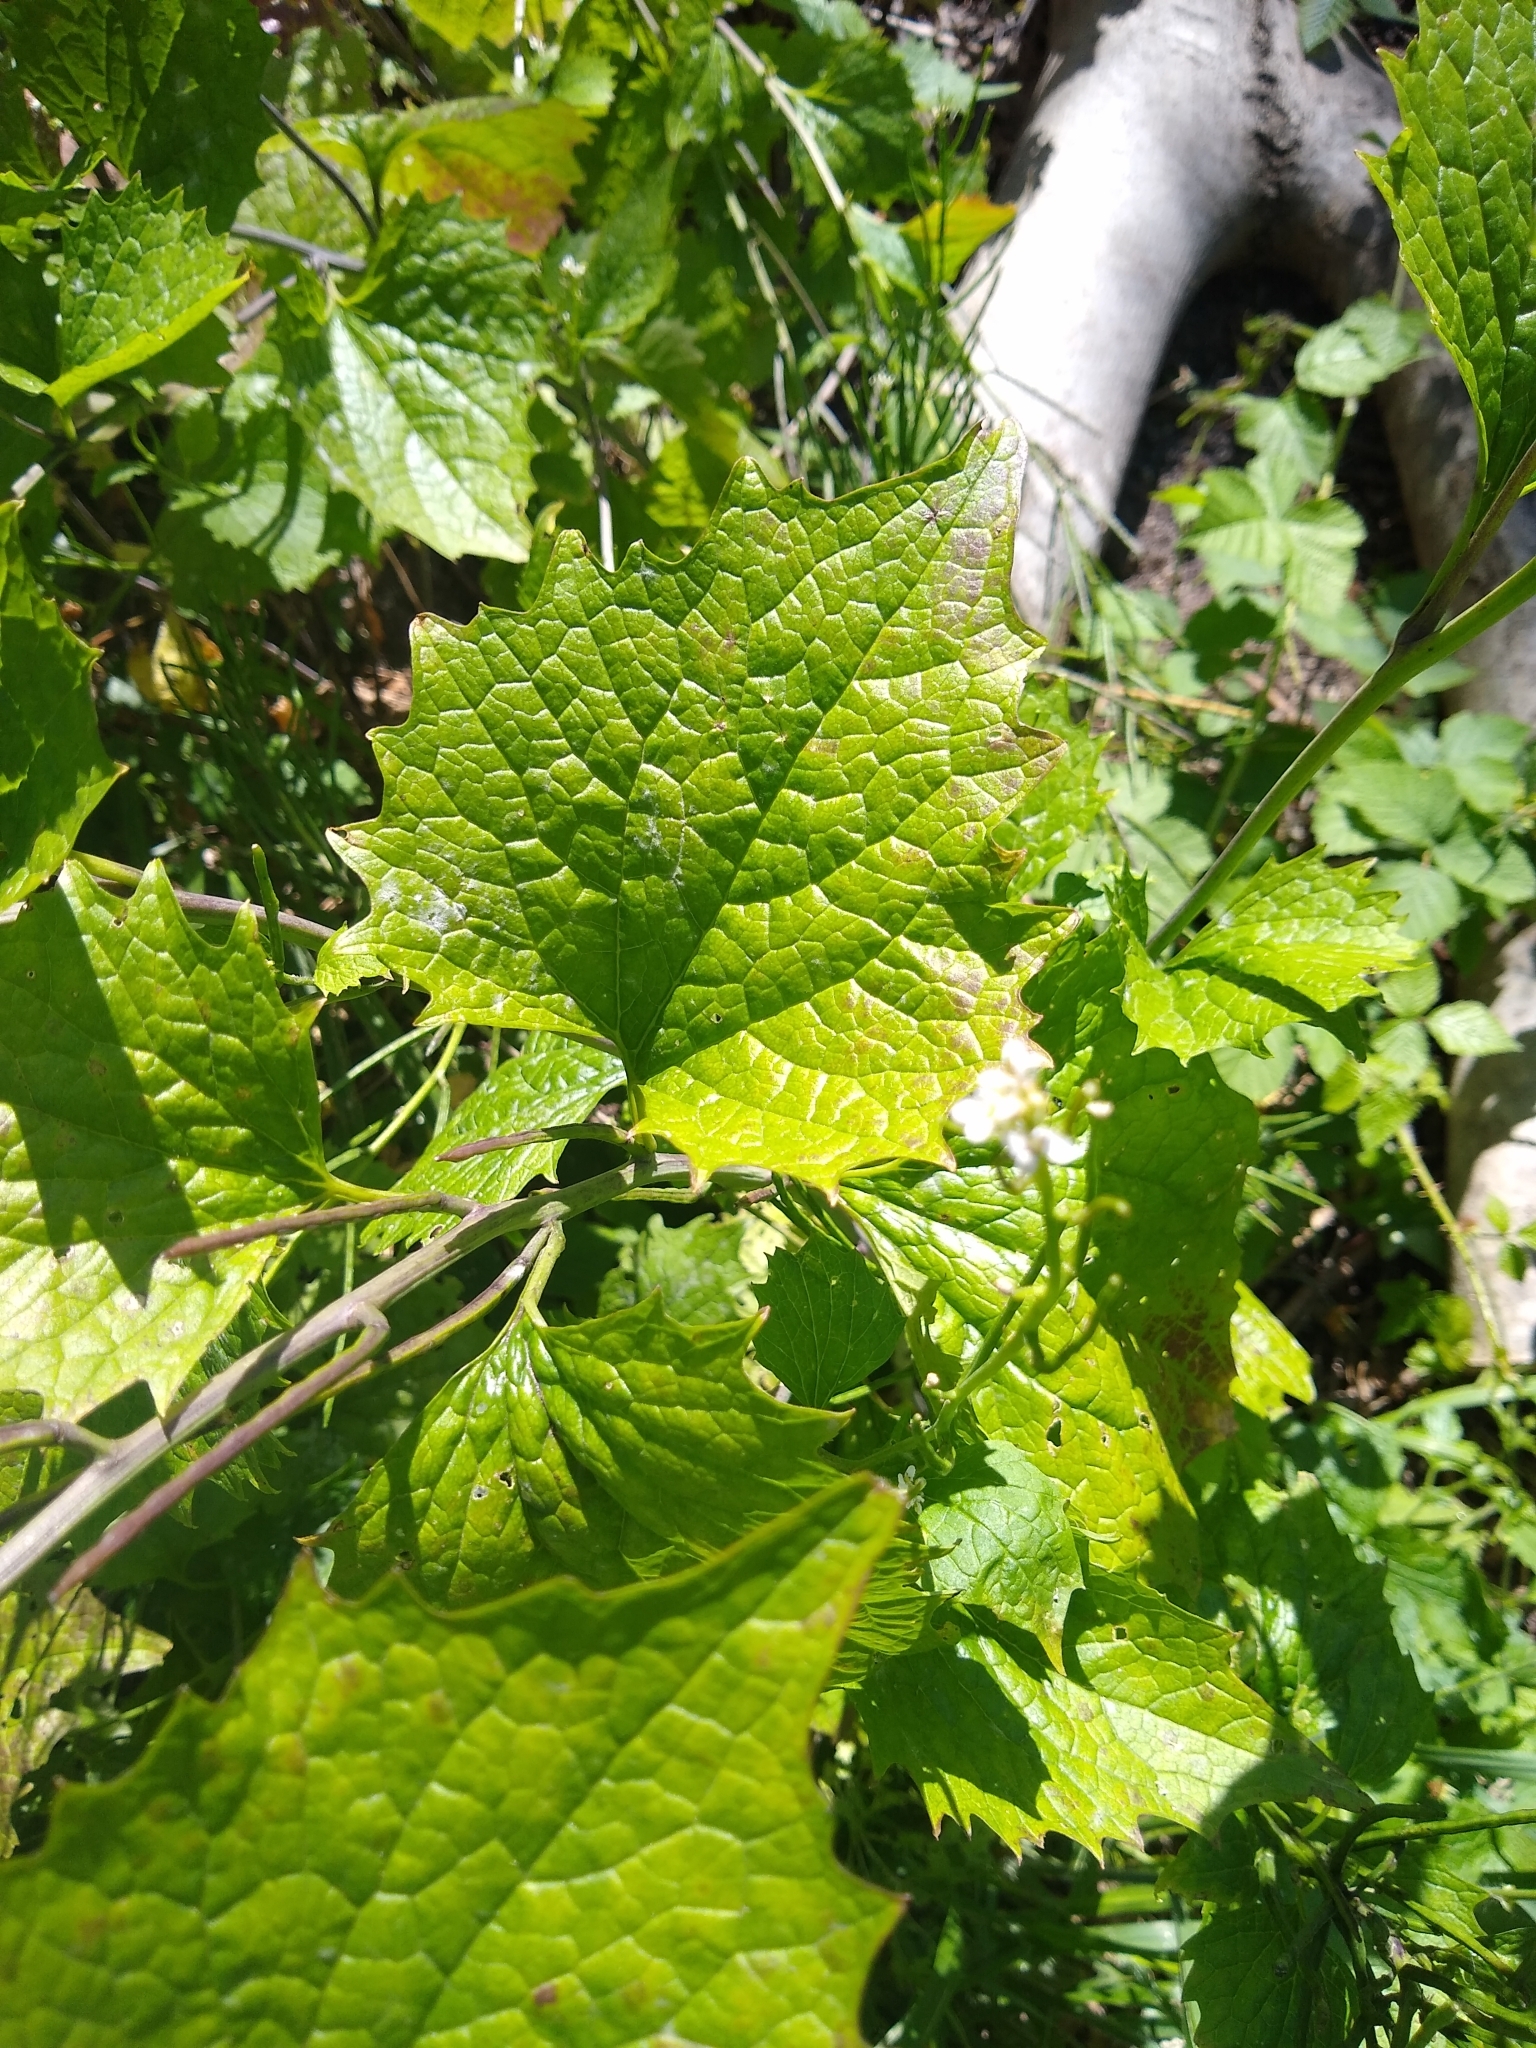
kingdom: Plantae
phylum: Tracheophyta
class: Magnoliopsida
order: Brassicales
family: Brassicaceae
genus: Alliaria
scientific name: Alliaria petiolata
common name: Garlic mustard
